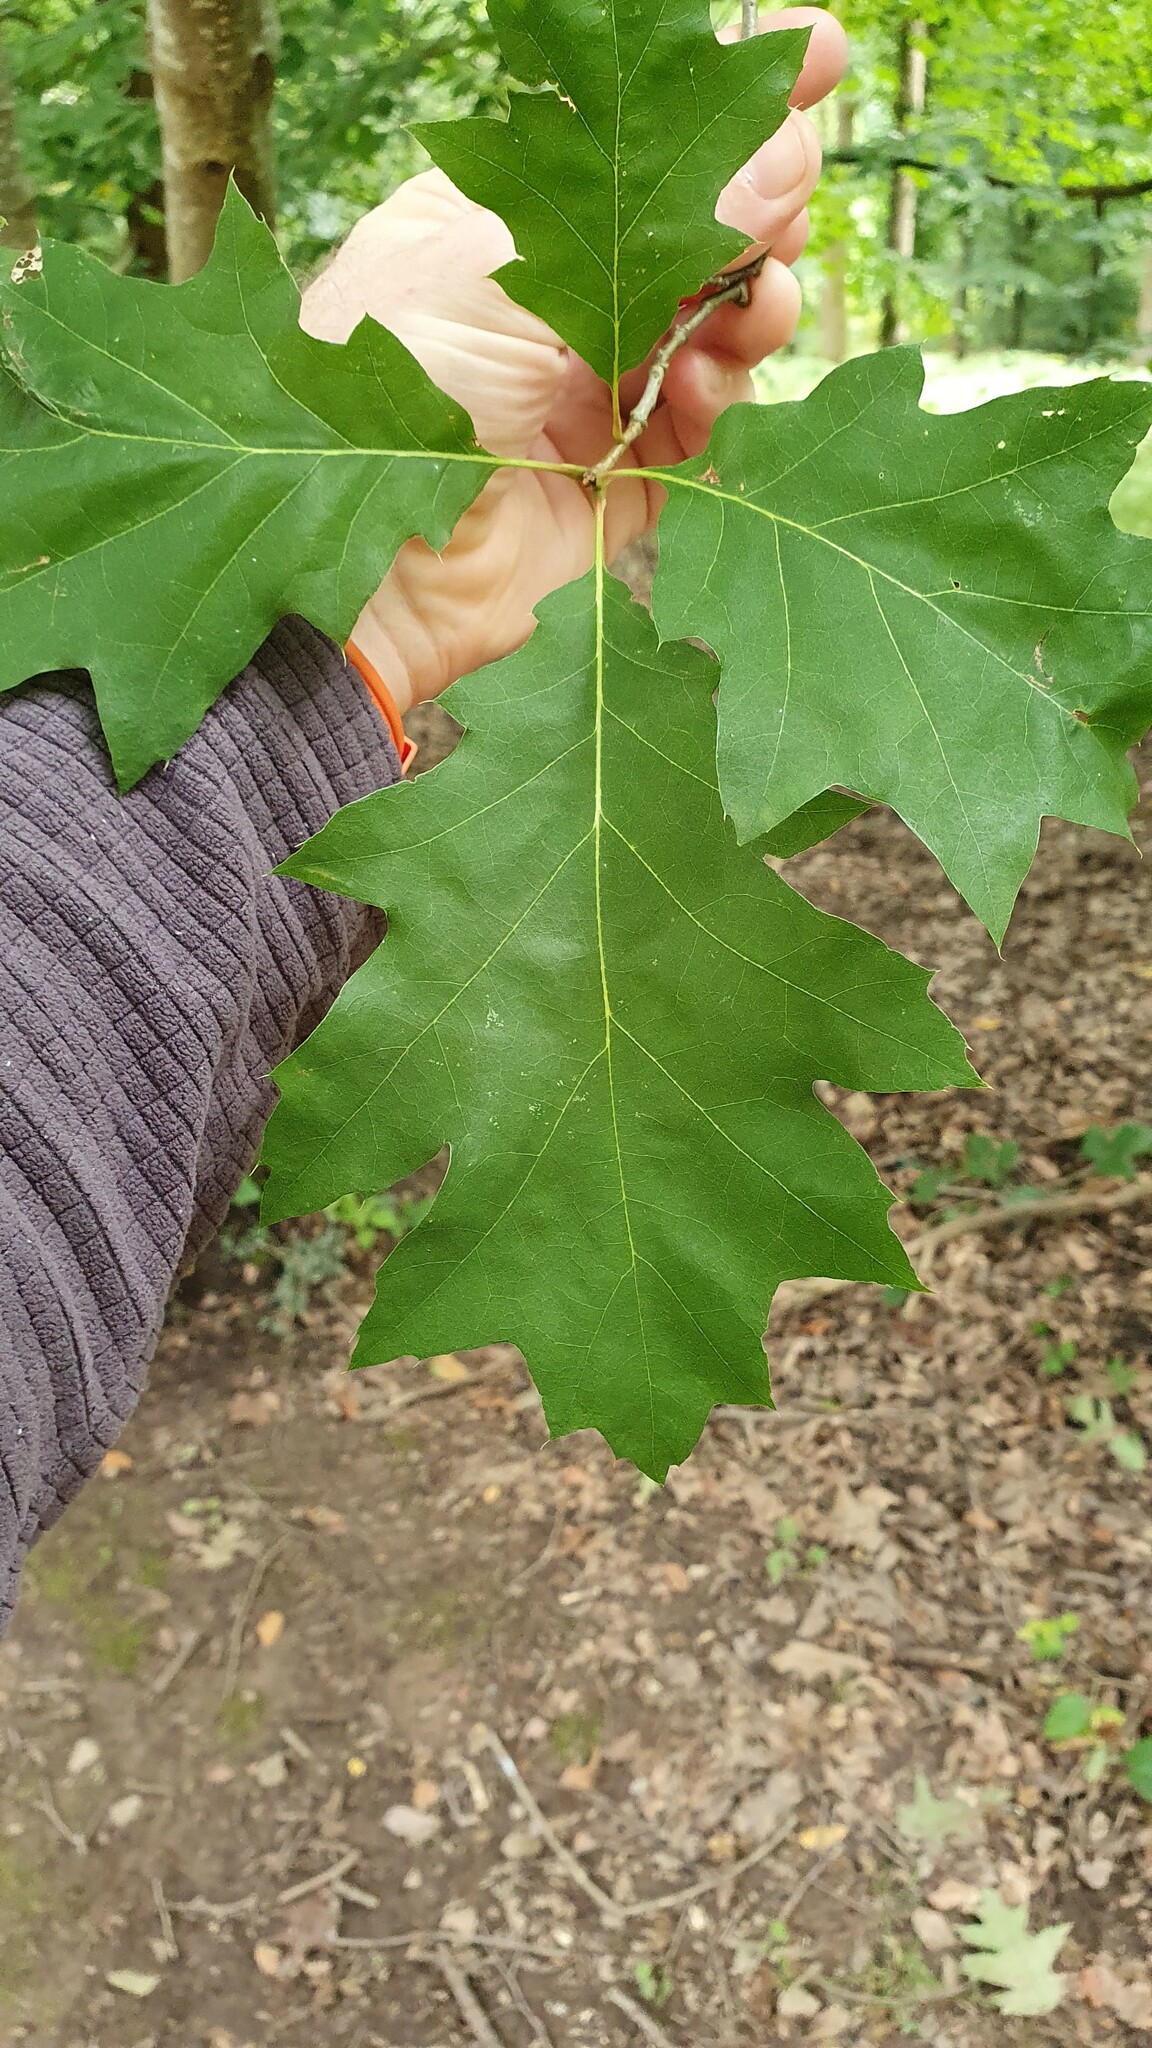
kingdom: Plantae
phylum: Tracheophyta
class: Magnoliopsida
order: Fagales
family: Fagaceae
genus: Quercus
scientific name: Quercus rubra
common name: Red oak
